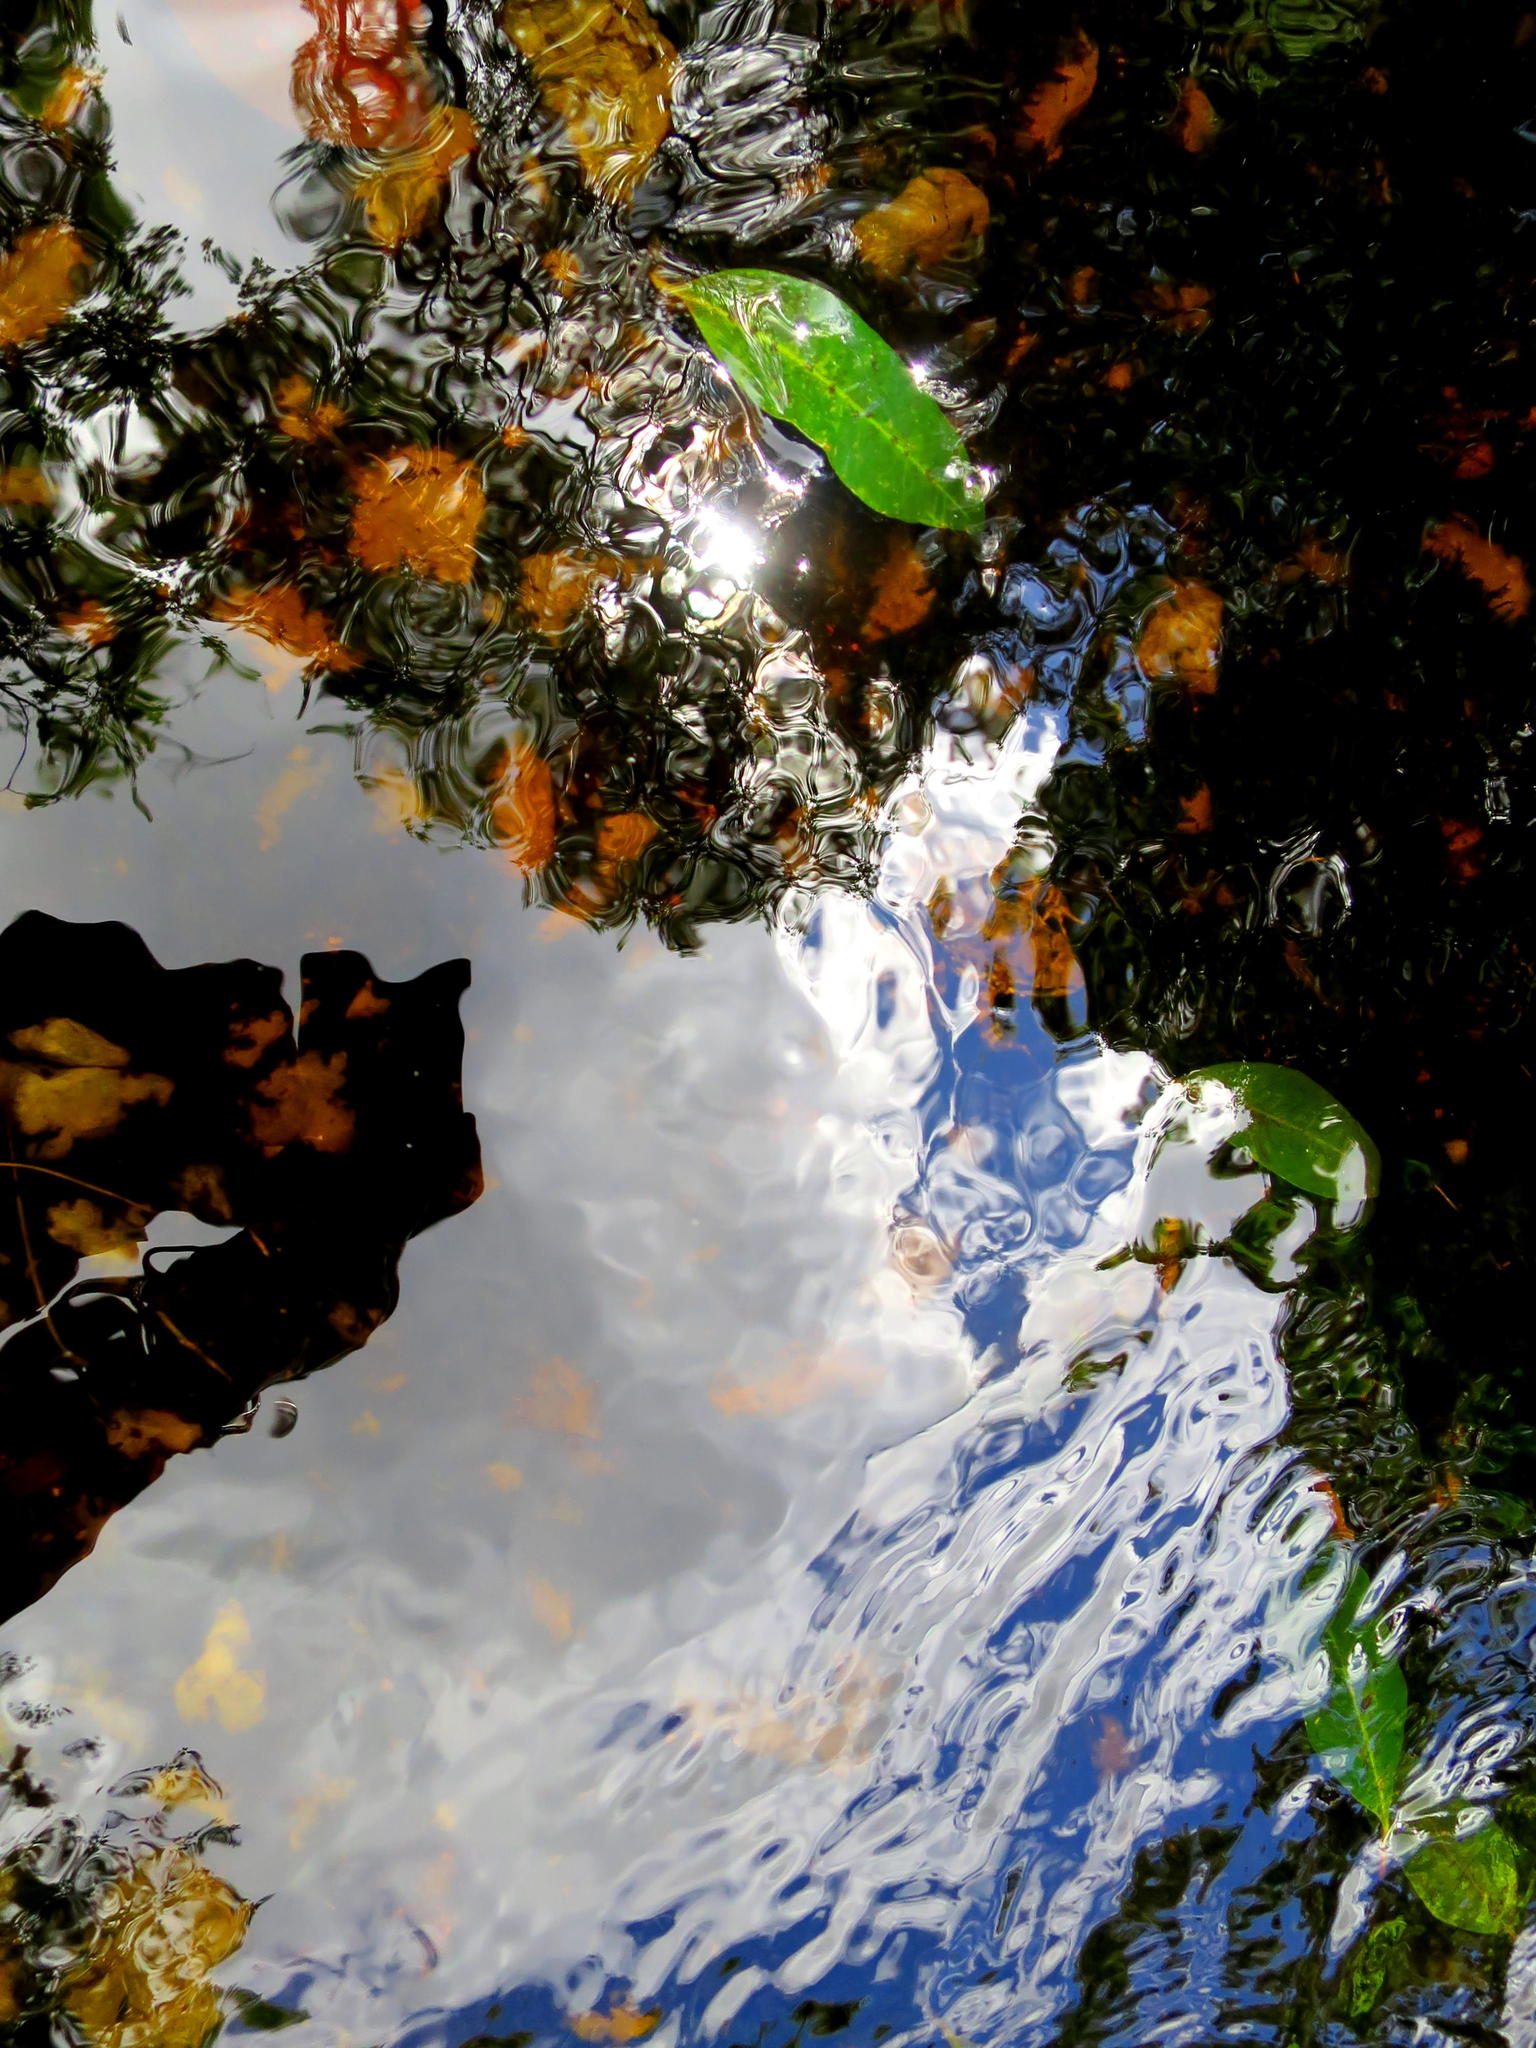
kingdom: Animalia
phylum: Chordata
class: Amphibia
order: Anura
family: Pyxicephalidae
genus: Amietia
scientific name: Amietia fuscigula
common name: Cape rana
